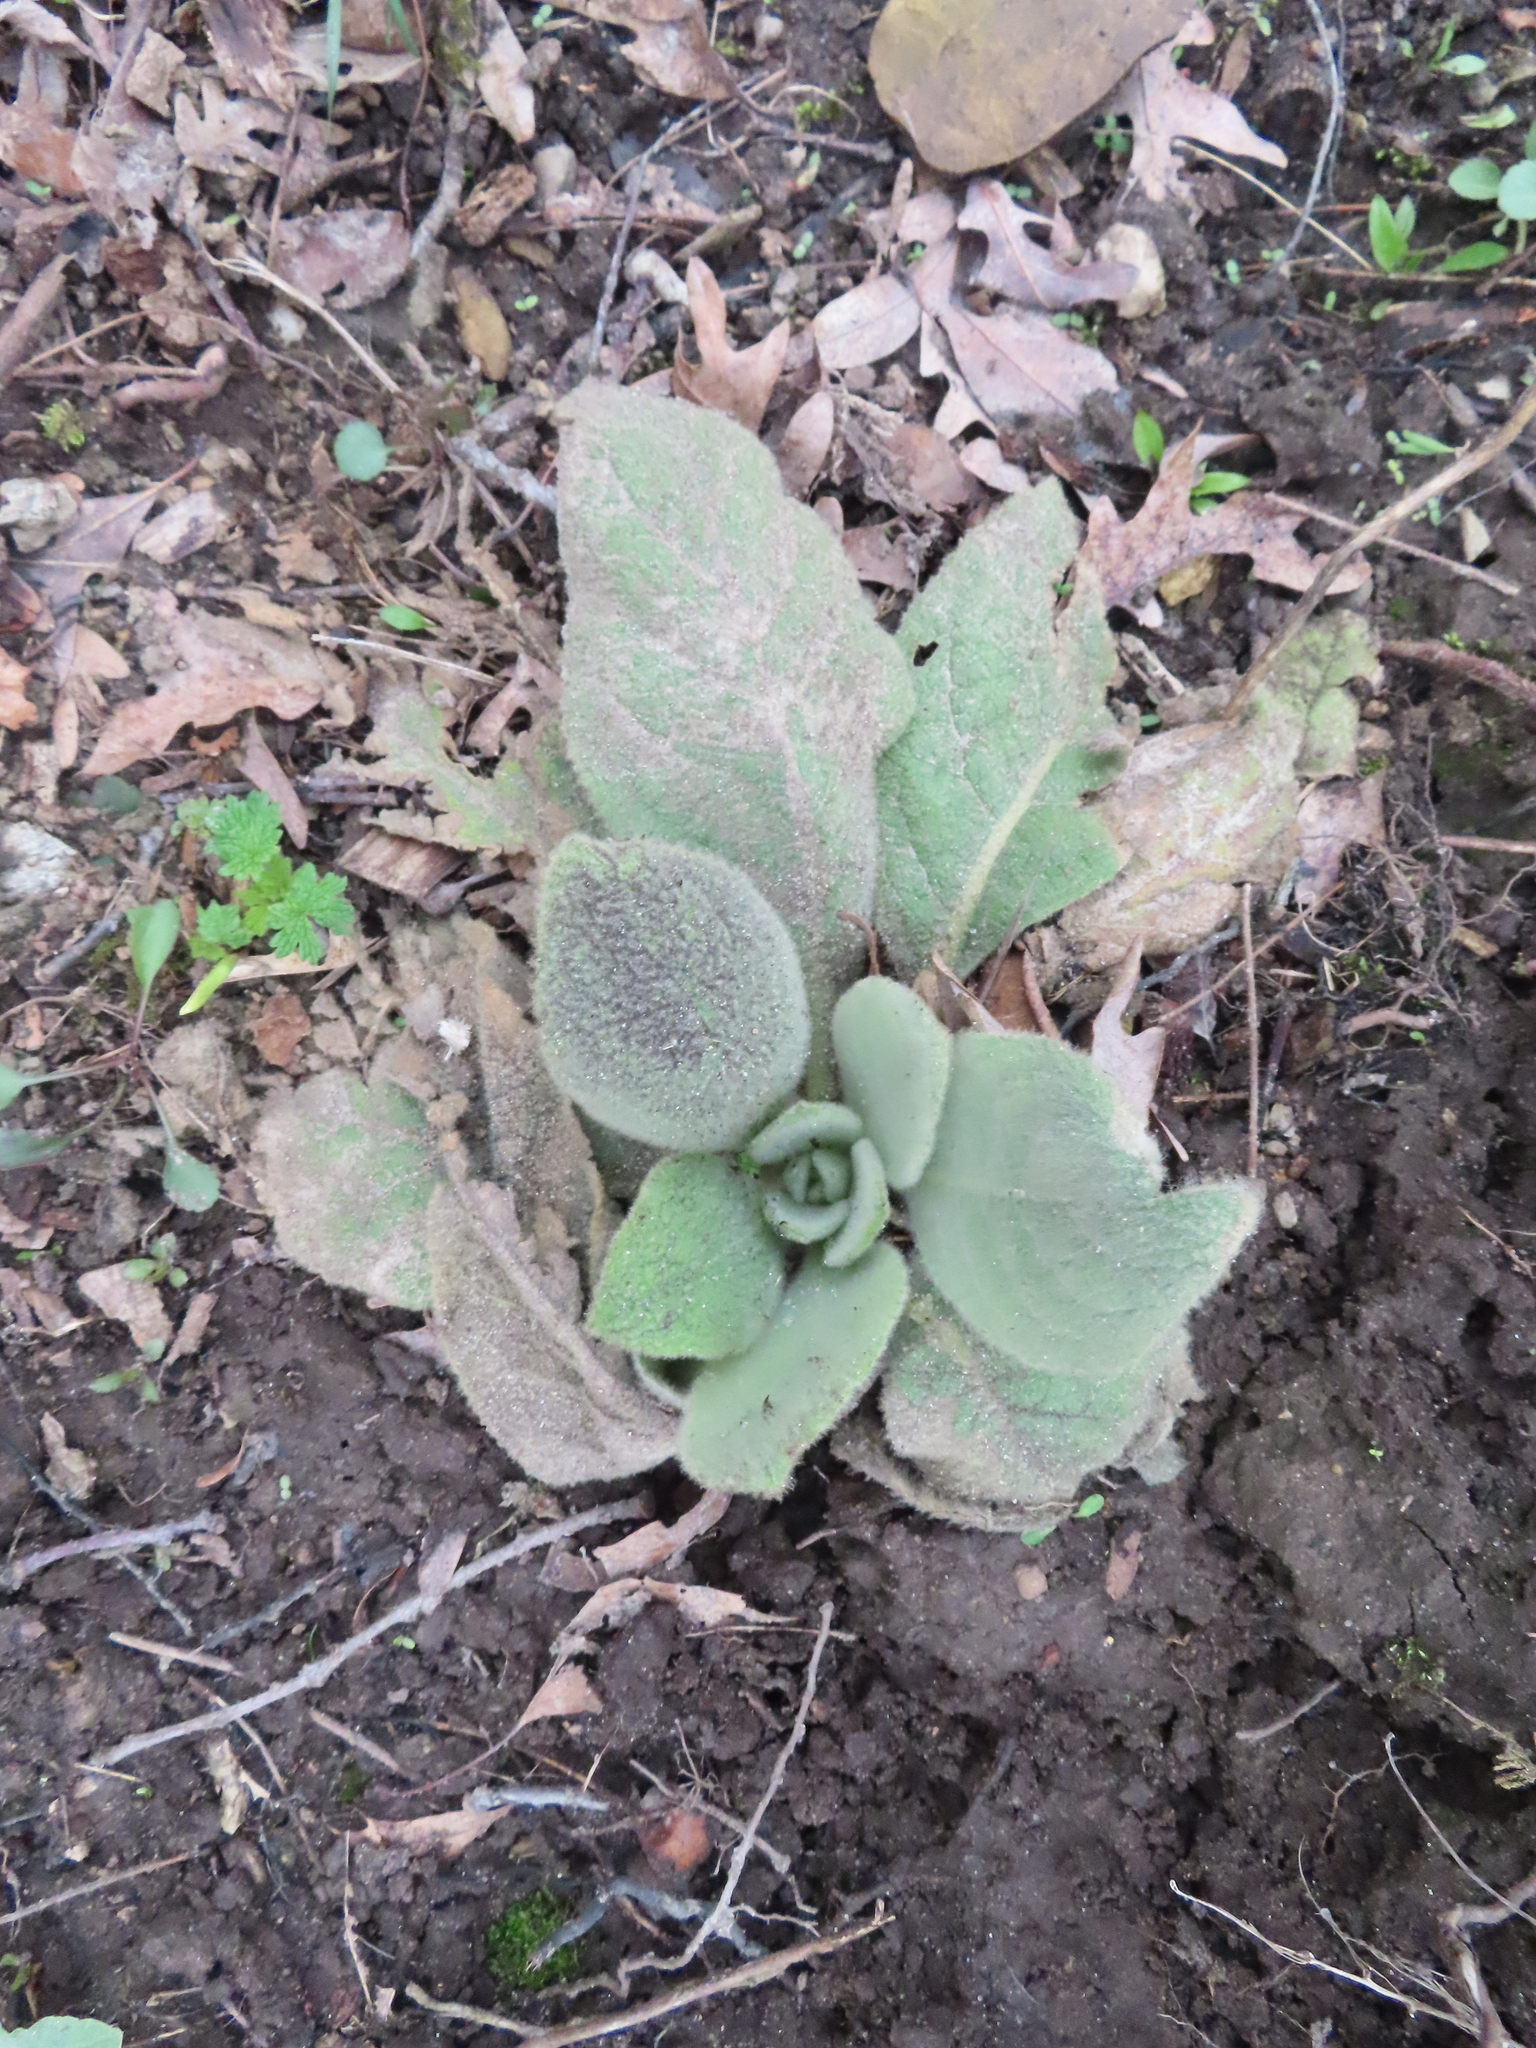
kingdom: Plantae
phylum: Tracheophyta
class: Magnoliopsida
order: Lamiales
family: Scrophulariaceae
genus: Verbascum
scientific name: Verbascum thapsus
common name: Common mullein
